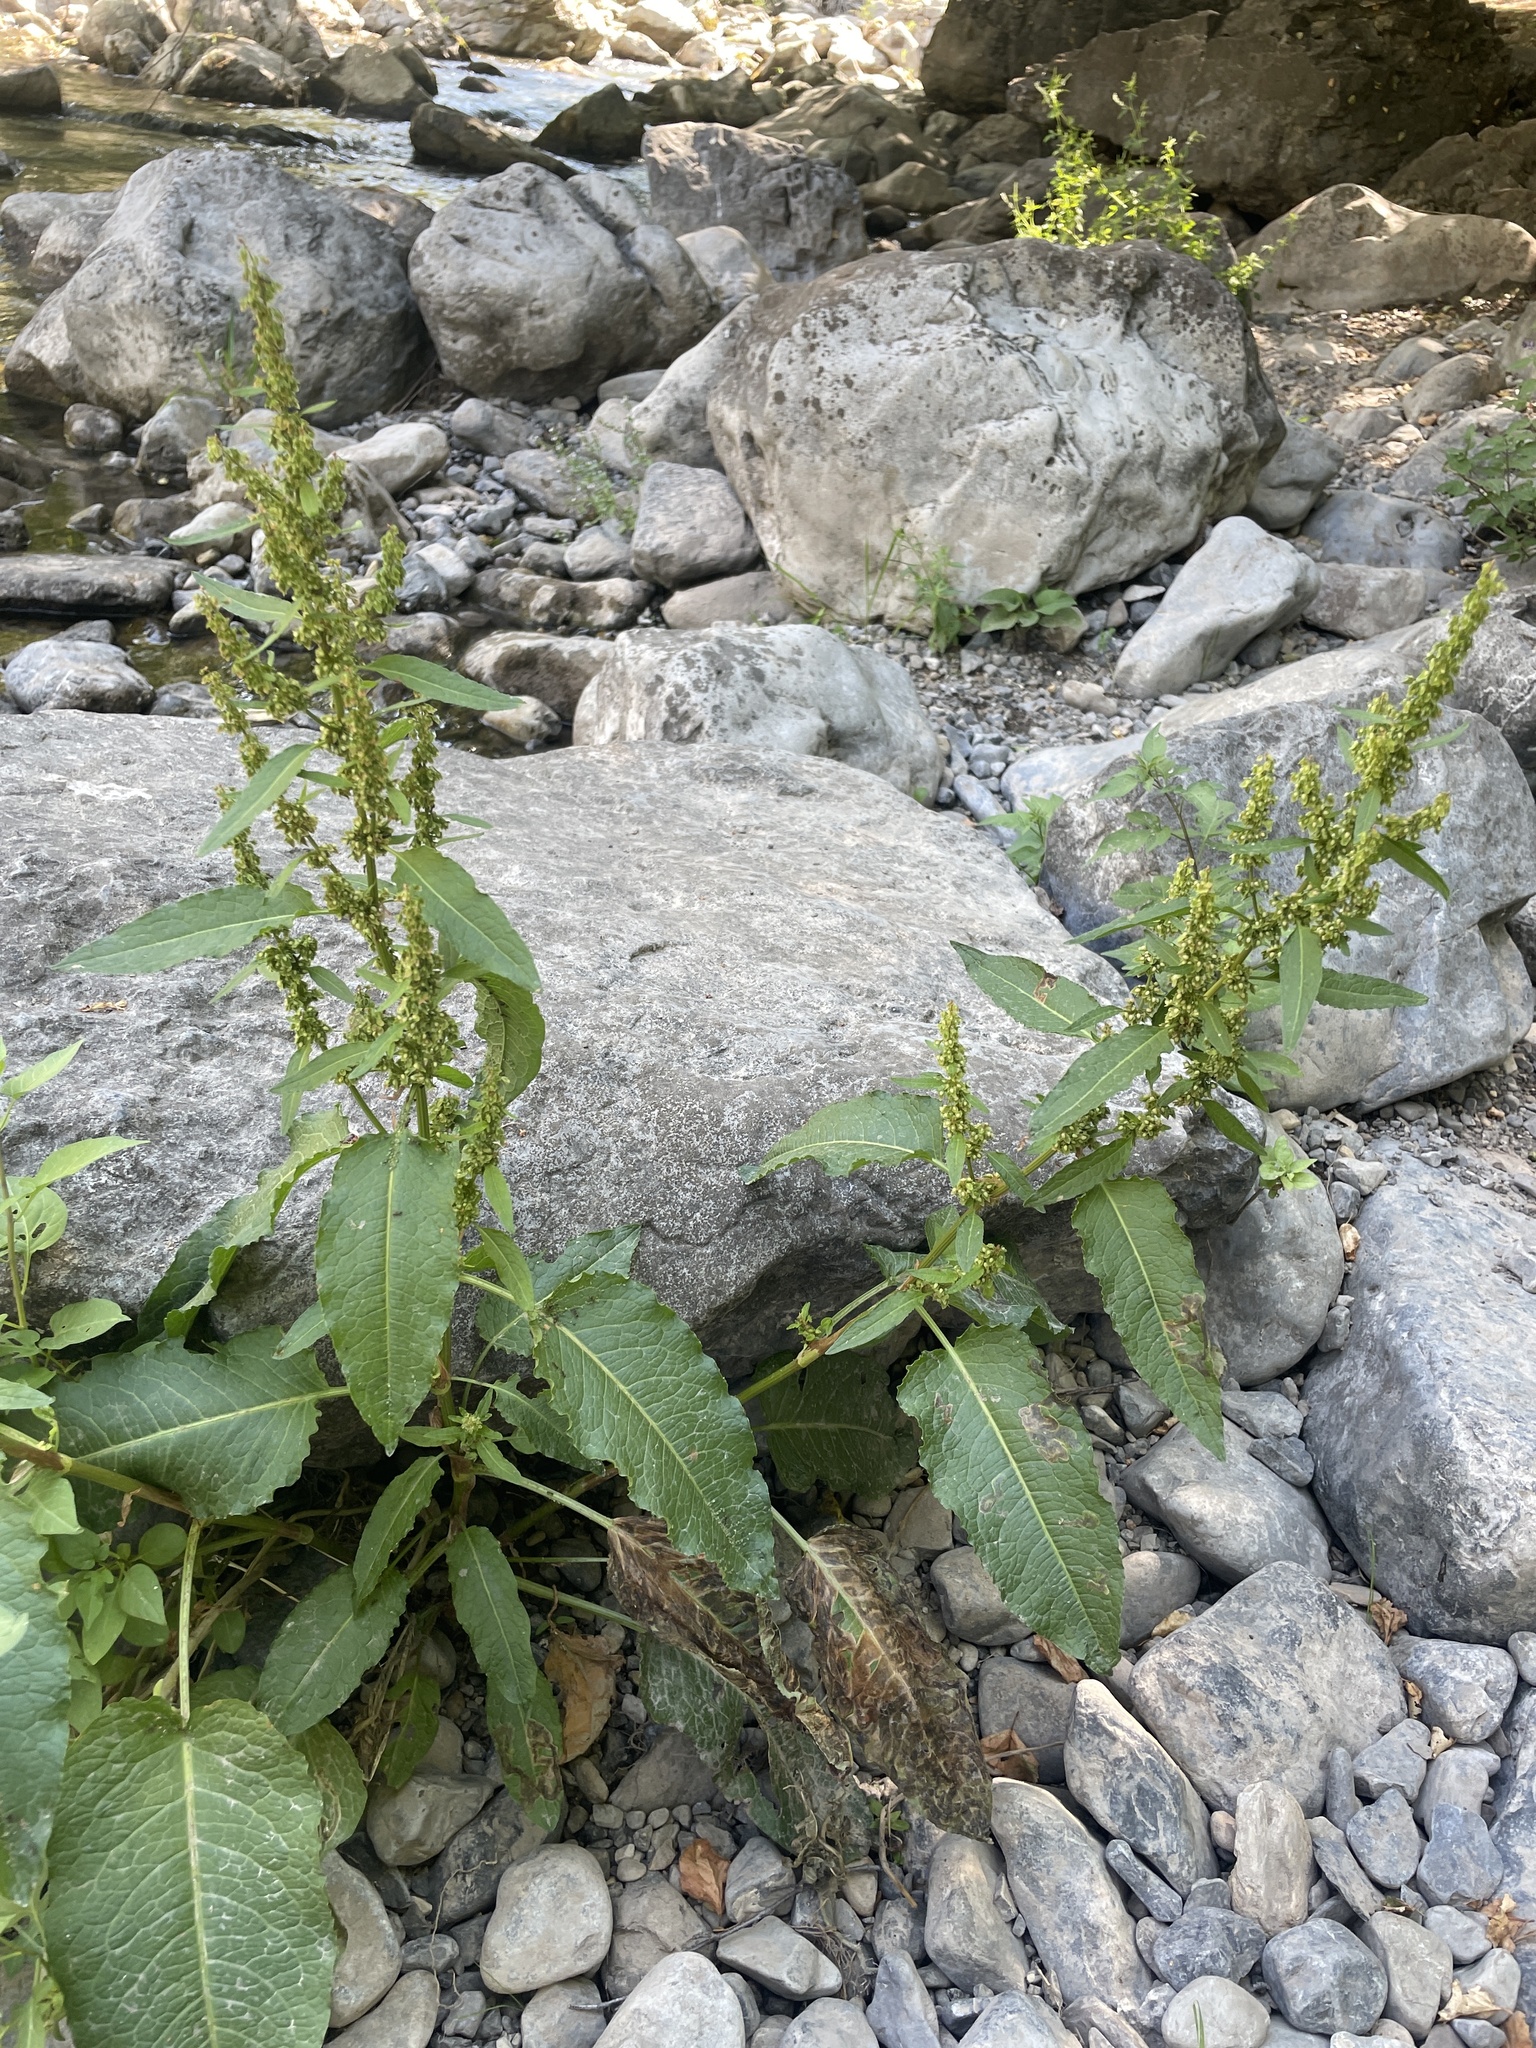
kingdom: Plantae
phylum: Tracheophyta
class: Magnoliopsida
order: Caryophyllales
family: Polygonaceae
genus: Rumex
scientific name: Rumex obtusifolius
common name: Bitter dock
